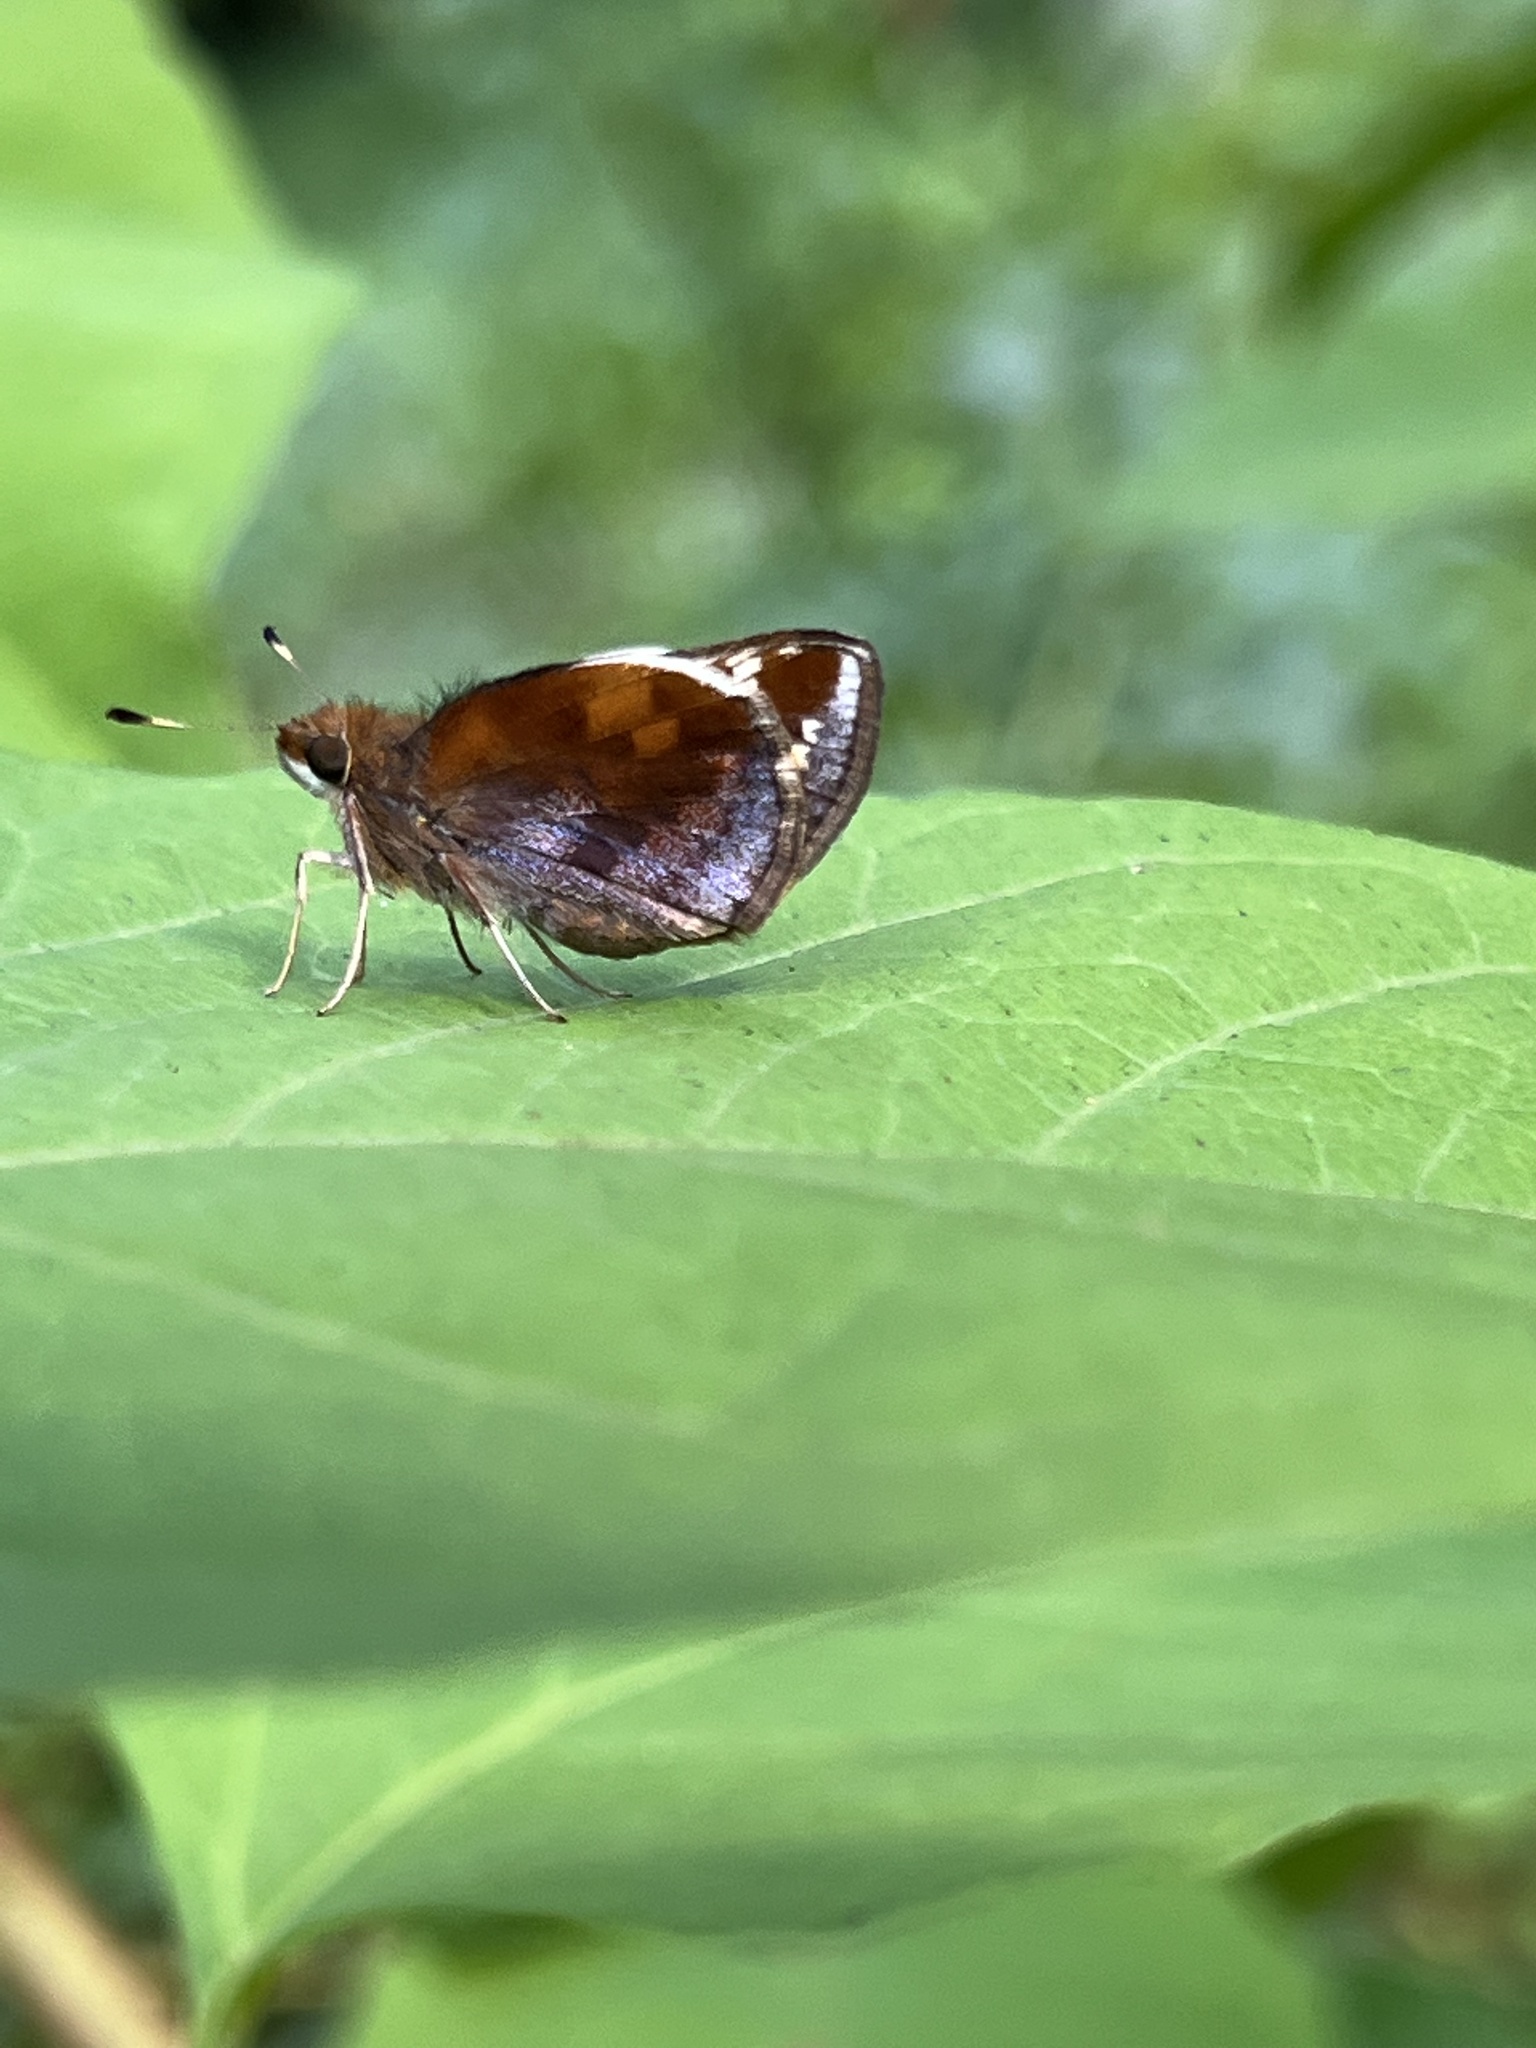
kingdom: Animalia
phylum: Arthropoda
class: Insecta
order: Lepidoptera
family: Hesperiidae
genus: Lon
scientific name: Lon zabulon
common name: Zabulon skipper
